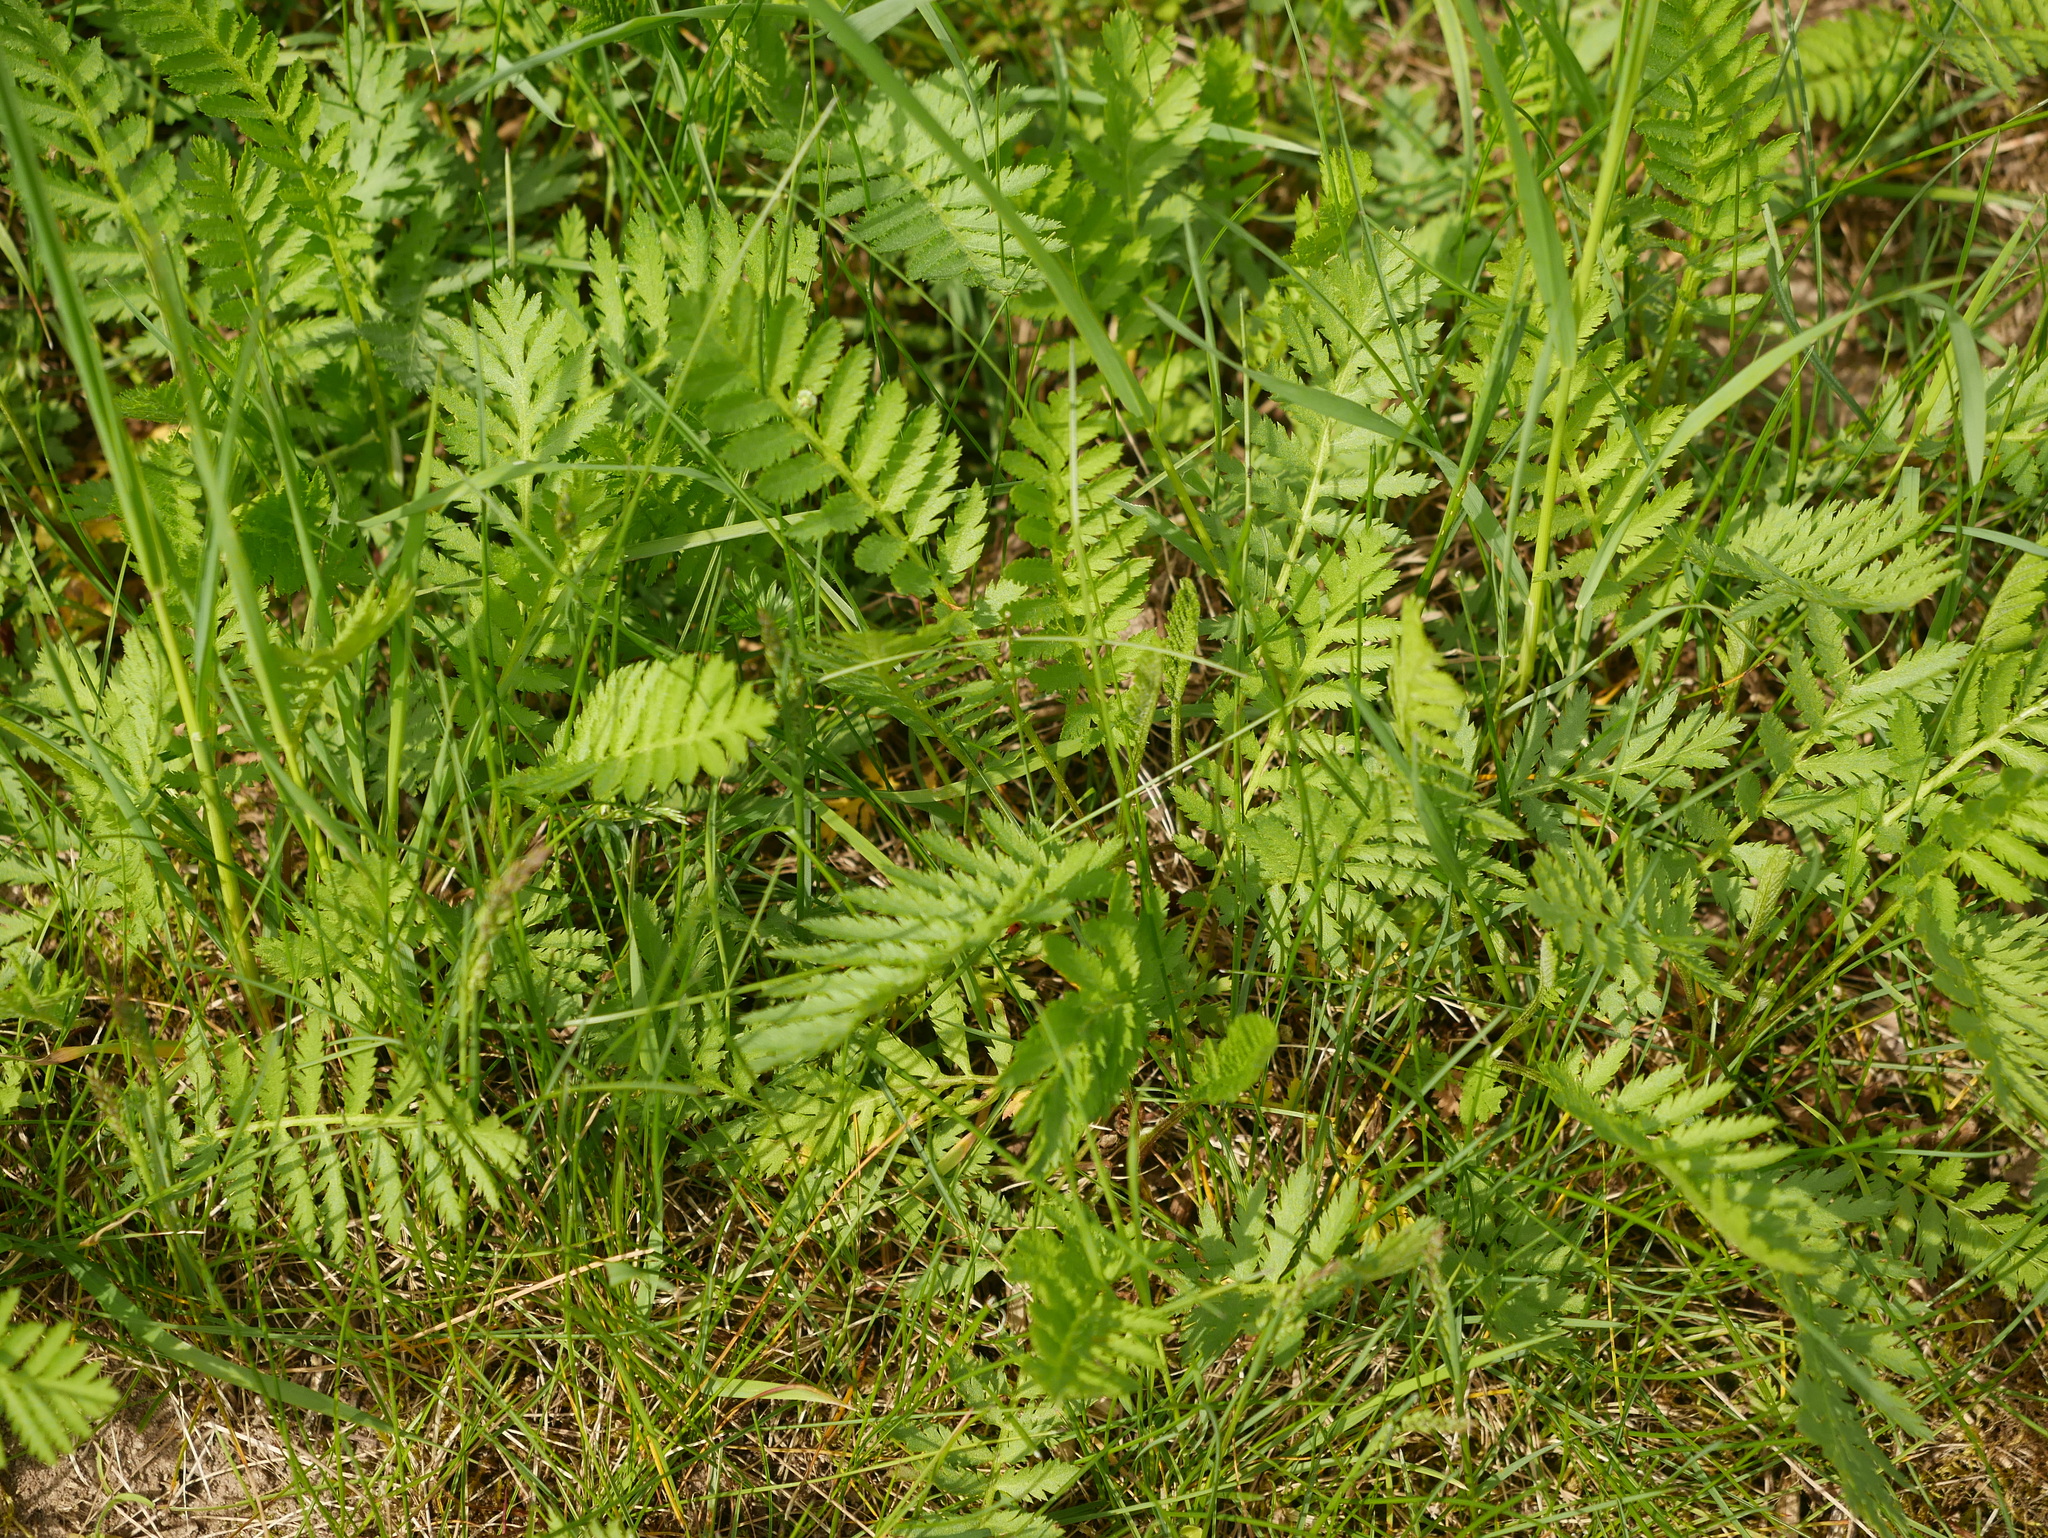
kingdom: Plantae
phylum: Tracheophyta
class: Magnoliopsida
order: Asterales
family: Asteraceae
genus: Tanacetum
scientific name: Tanacetum vulgare
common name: Common tansy
